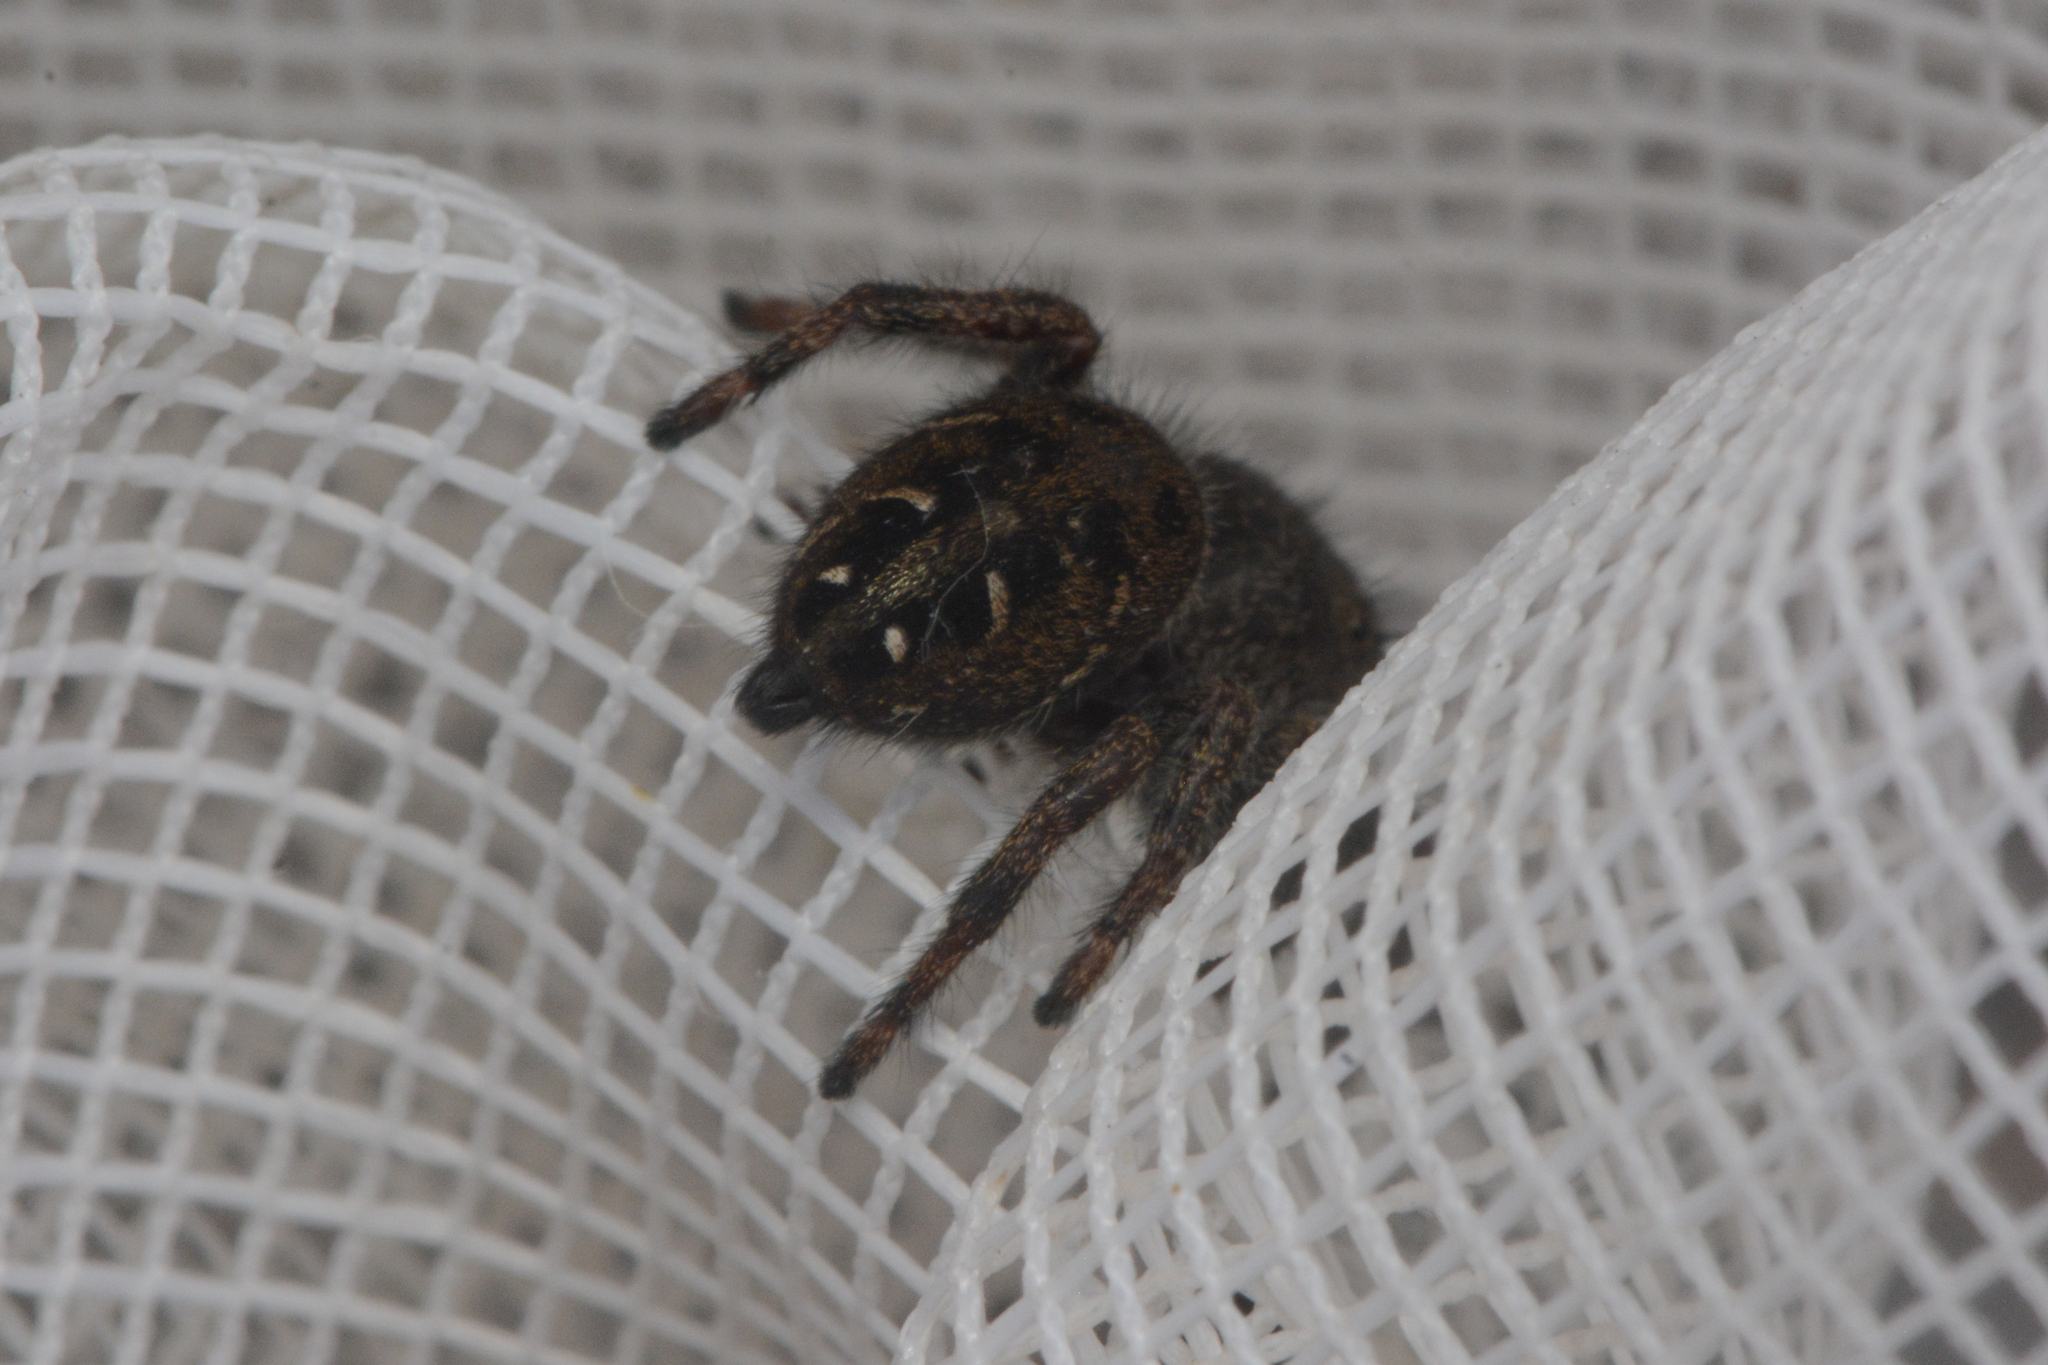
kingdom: Animalia
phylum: Arthropoda
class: Arachnida
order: Araneae
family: Salticidae
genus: Phidippus
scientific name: Phidippus cryptus
